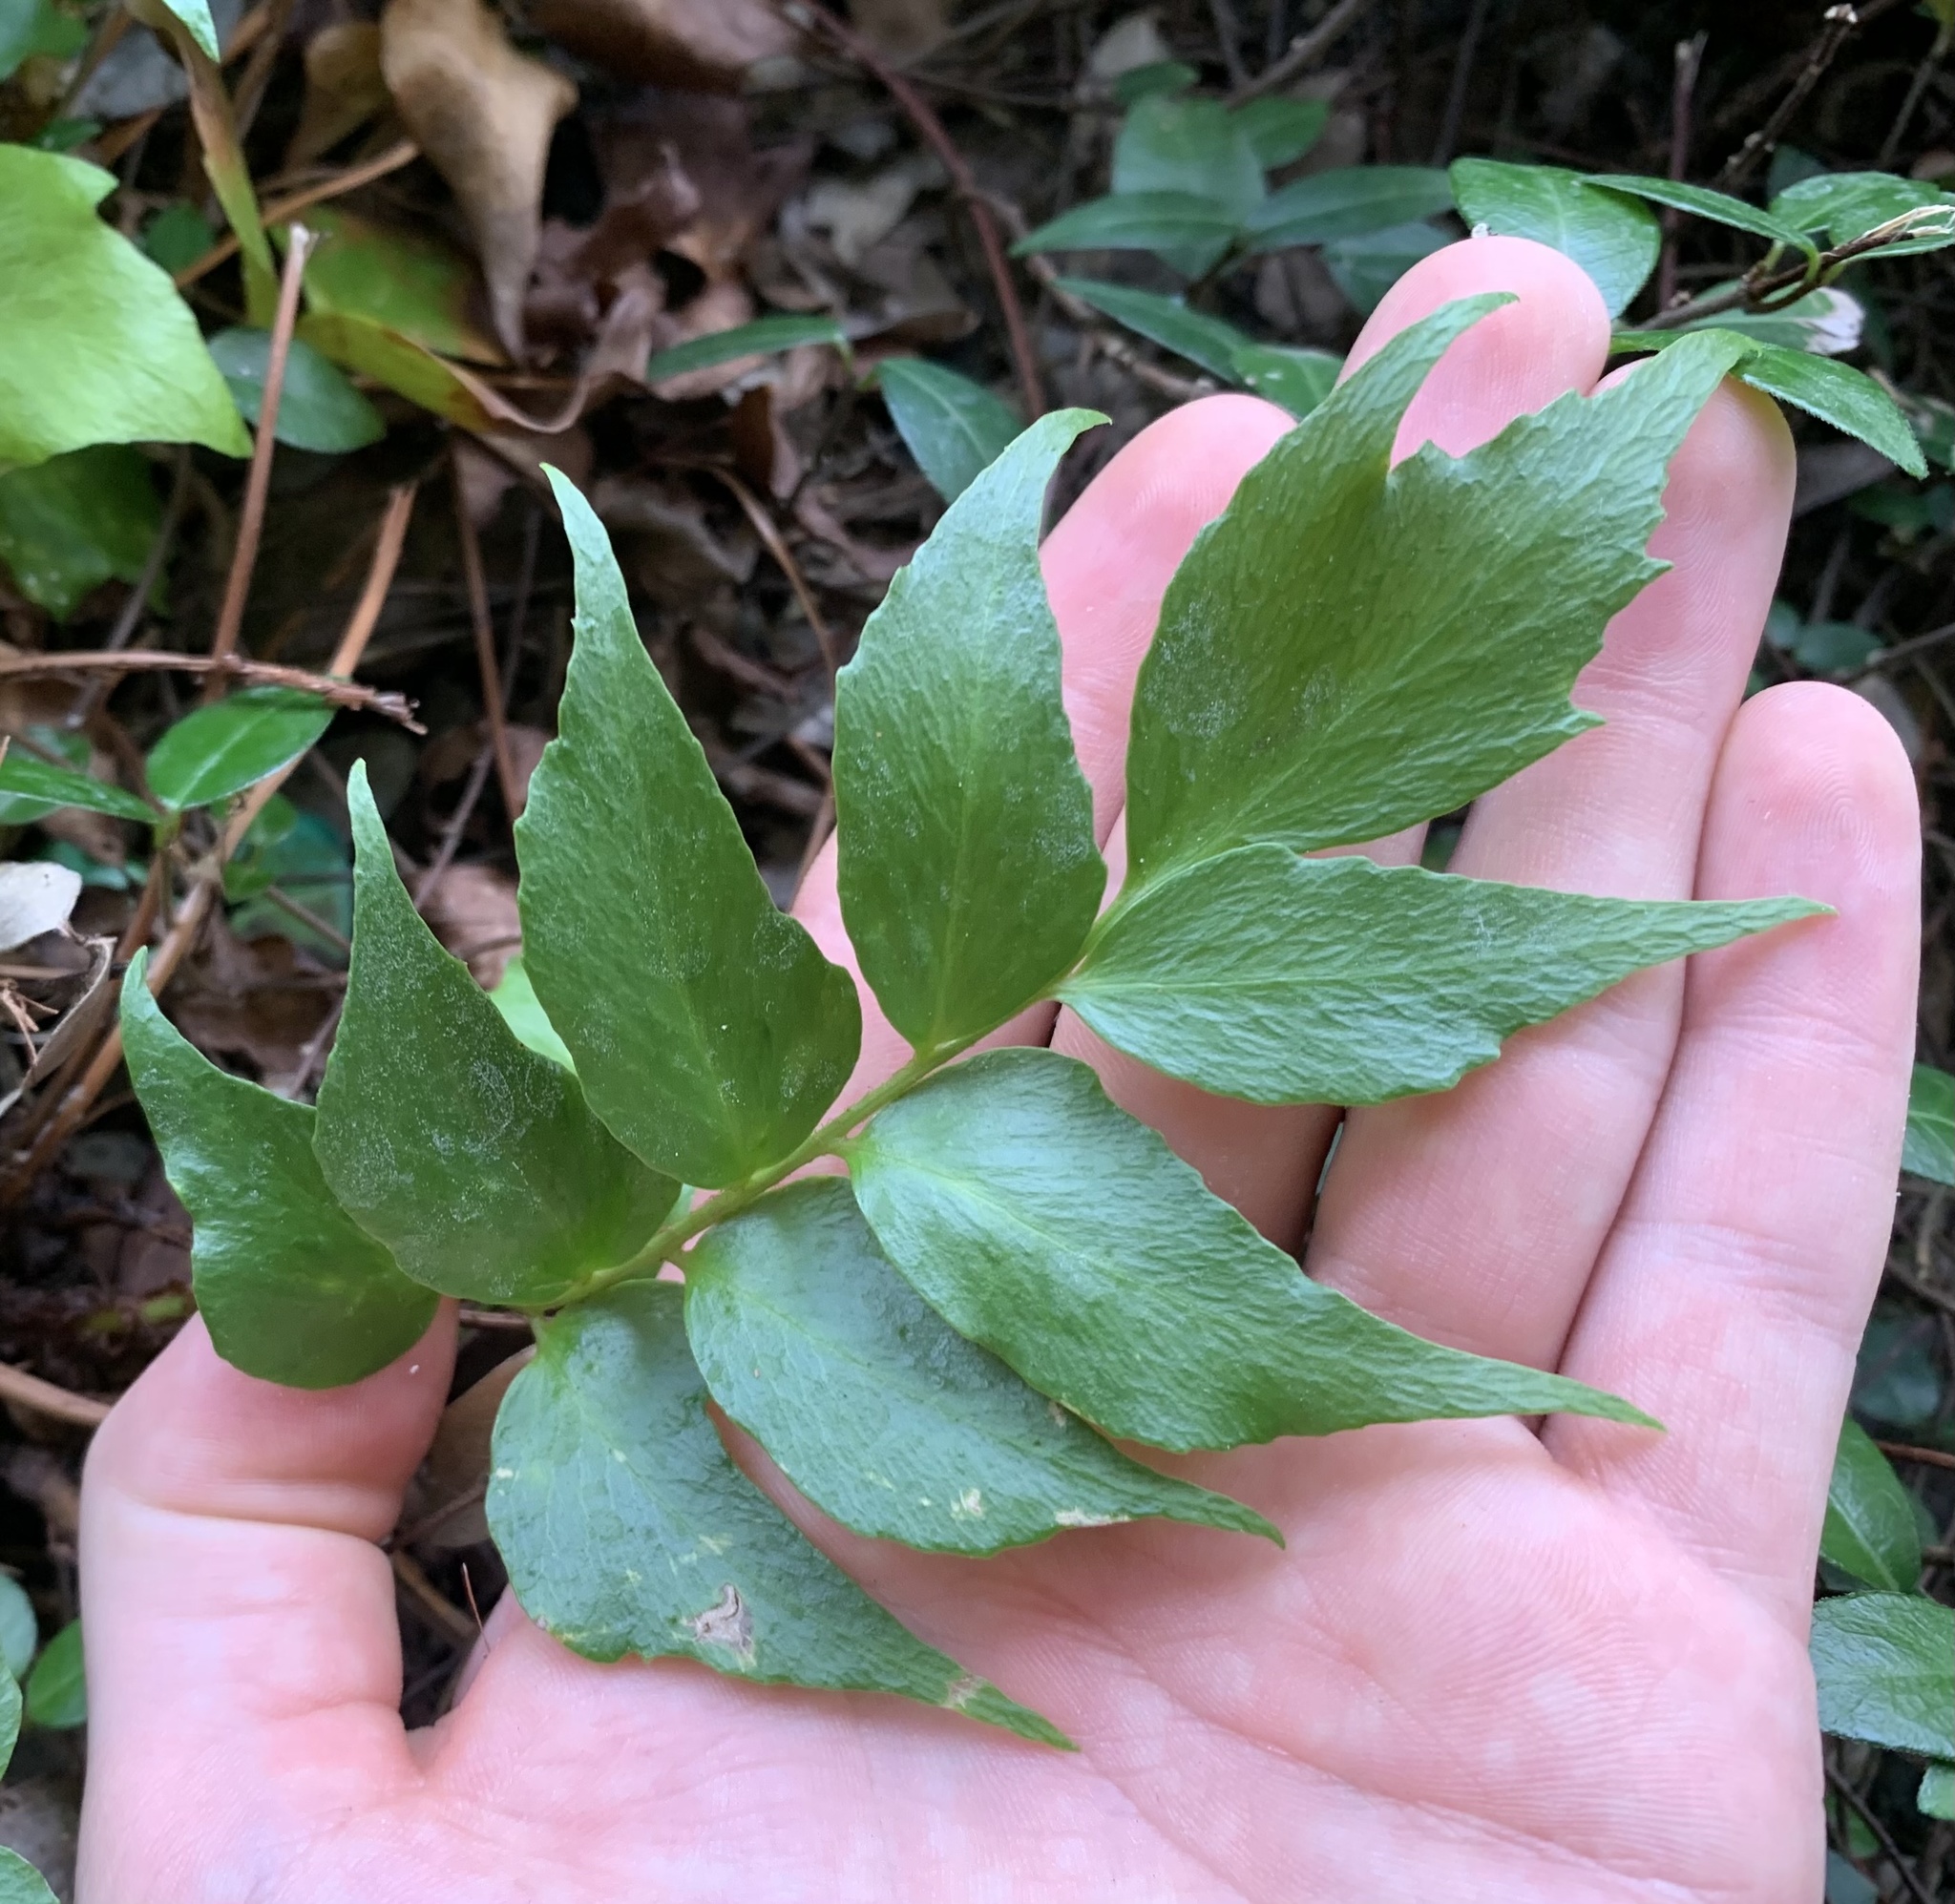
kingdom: Plantae
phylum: Tracheophyta
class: Polypodiopsida
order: Polypodiales
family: Dryopteridaceae
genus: Cyrtomium
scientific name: Cyrtomium falcatum
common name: House holly-fern
